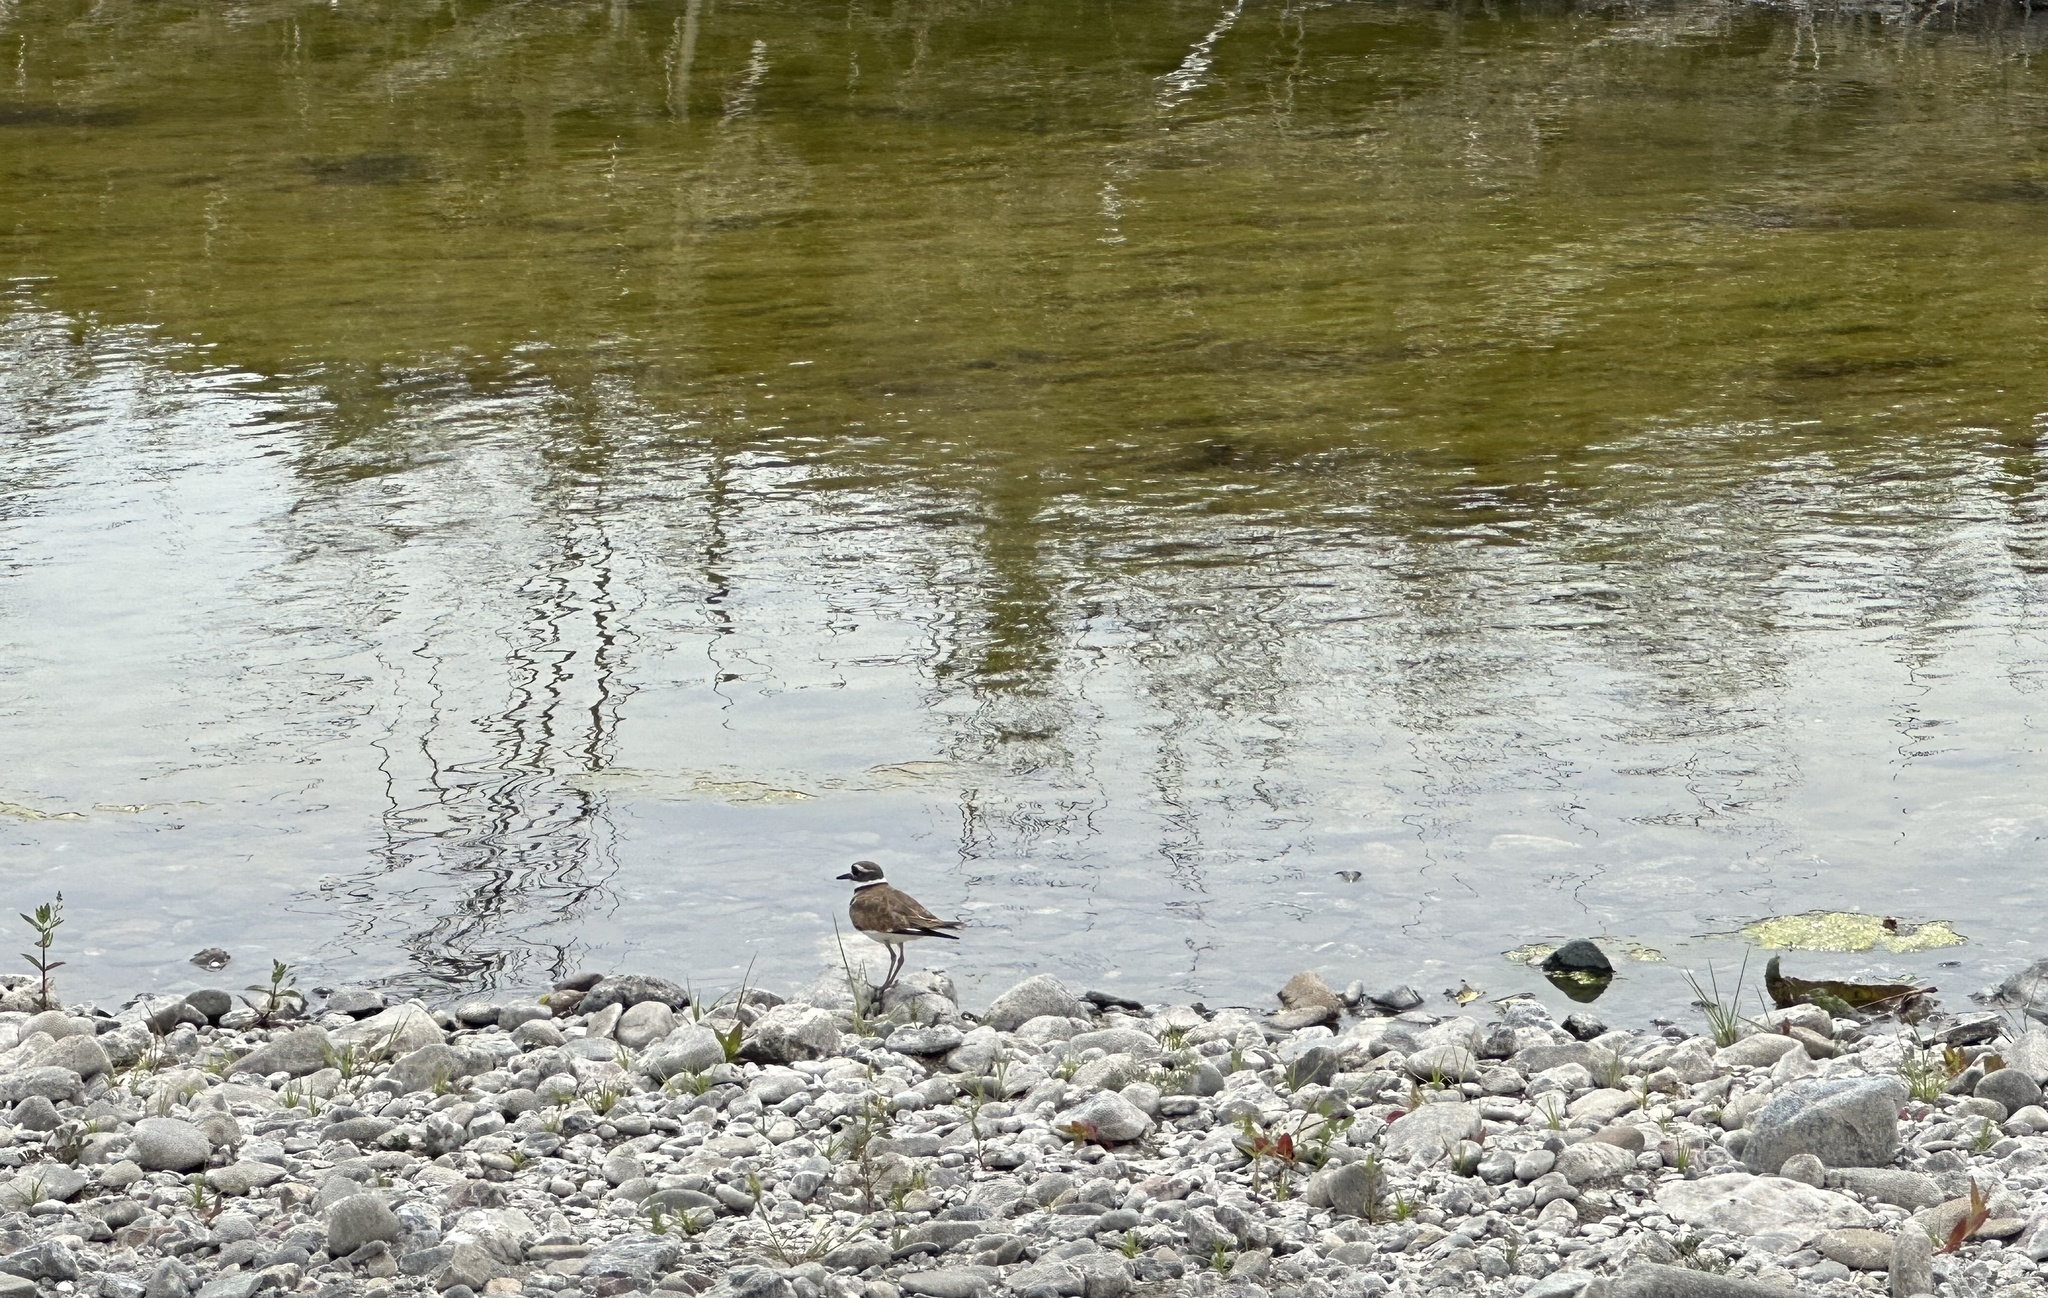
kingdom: Animalia
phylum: Chordata
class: Aves
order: Charadriiformes
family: Charadriidae
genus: Charadrius
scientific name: Charadrius vociferus
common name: Killdeer
